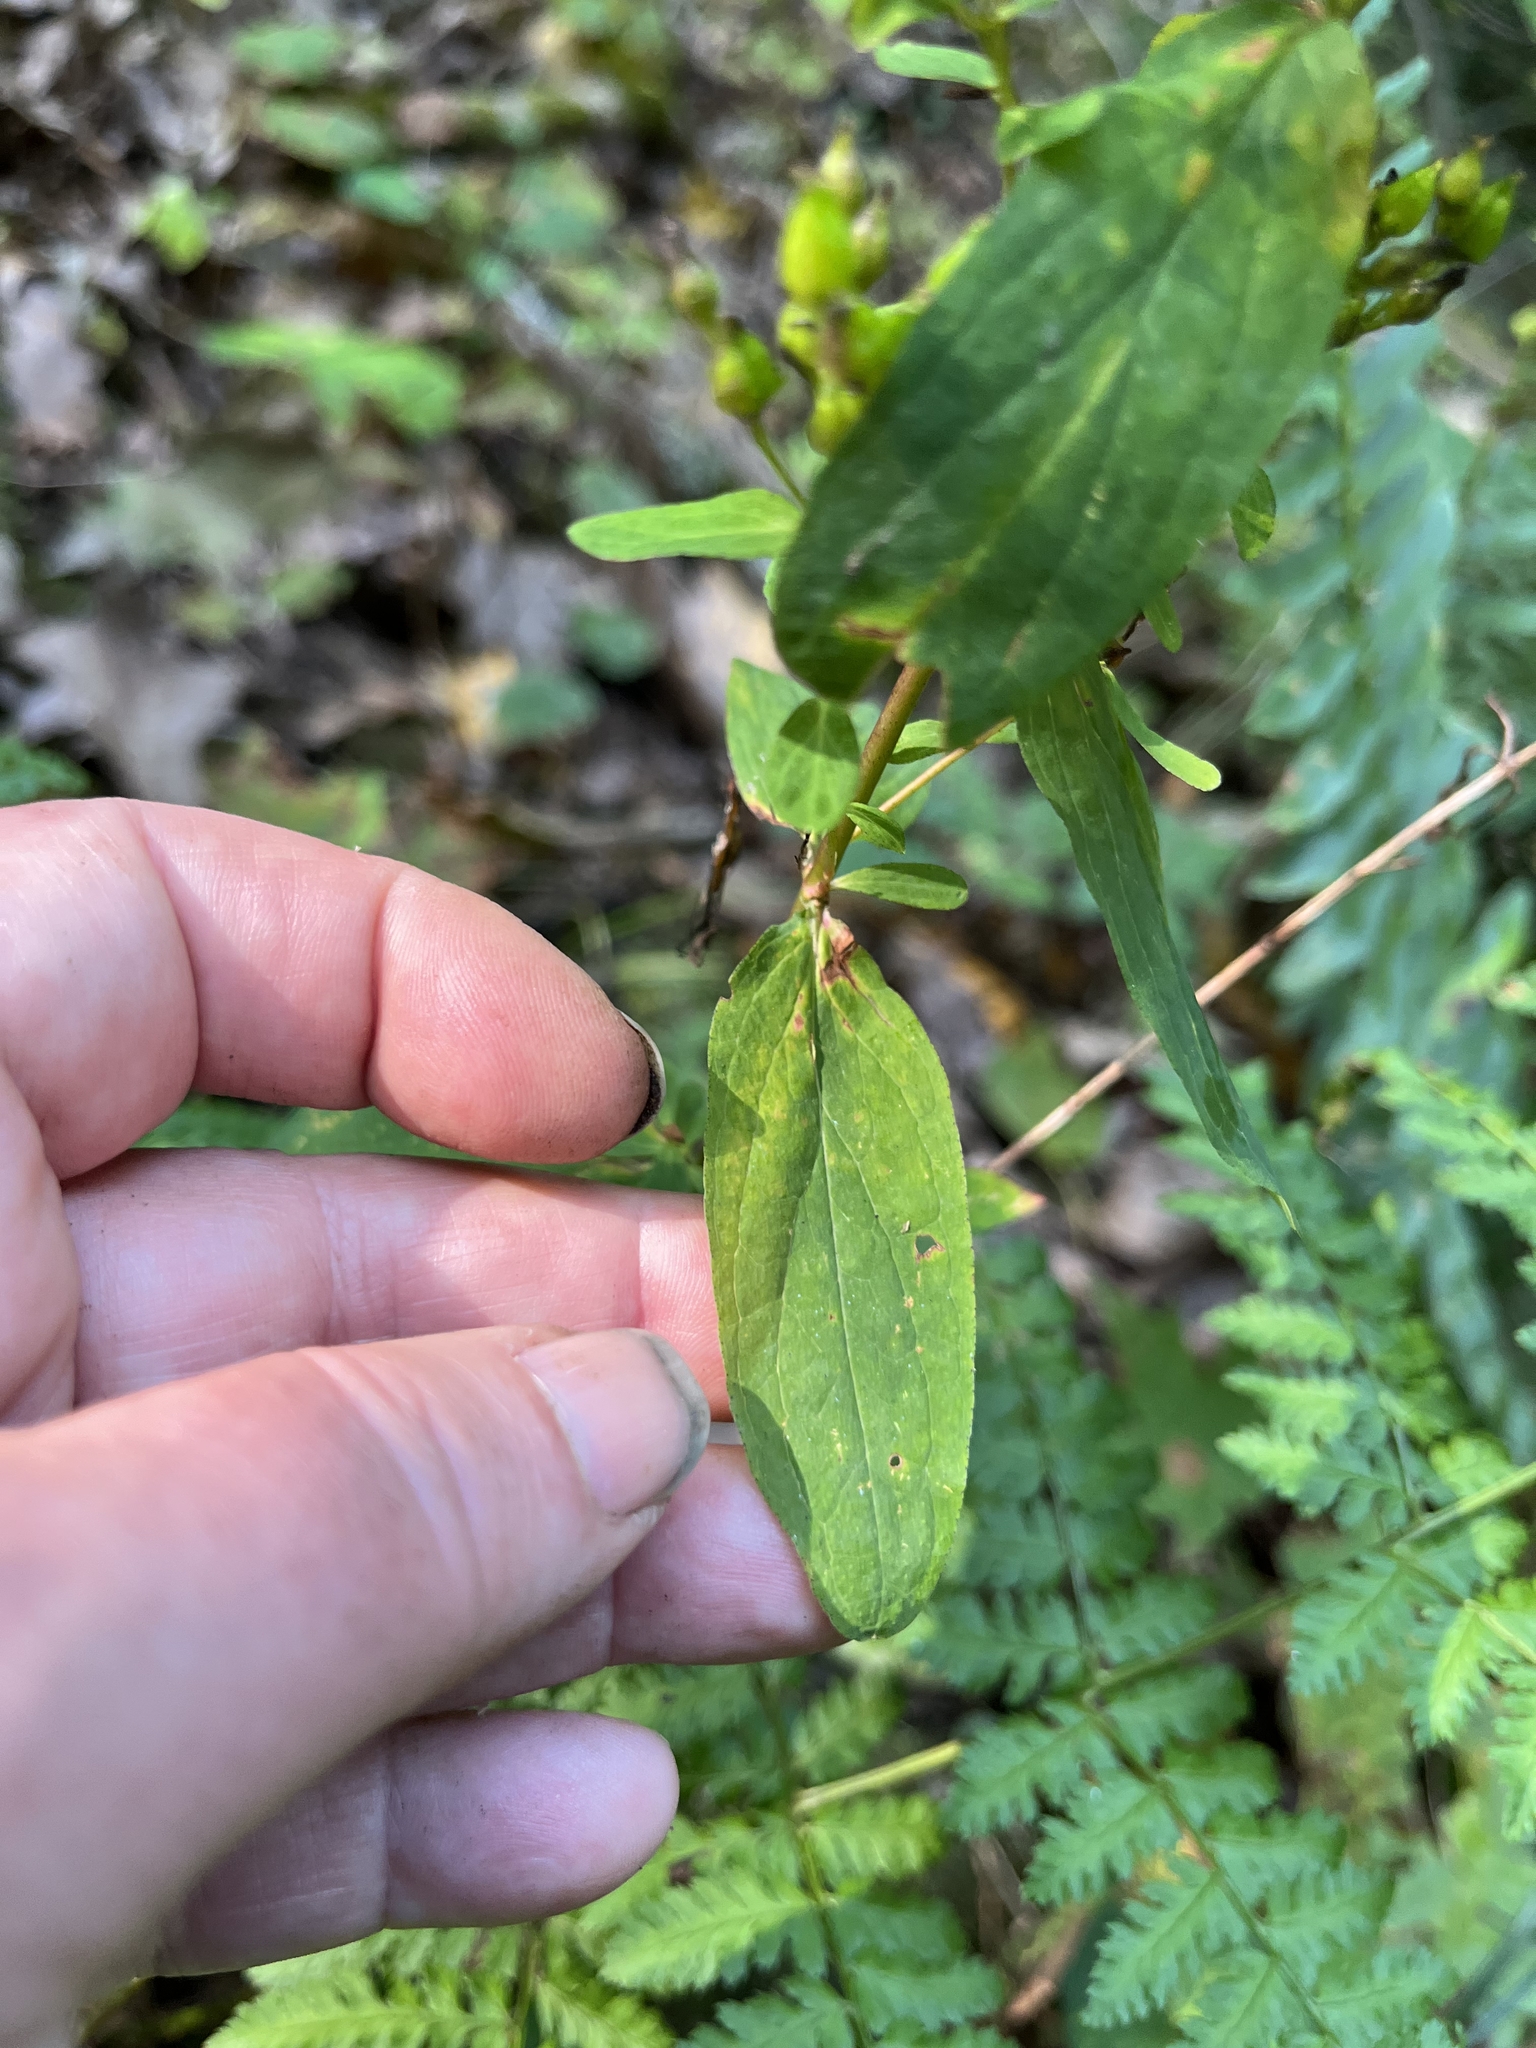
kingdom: Plantae
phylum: Tracheophyta
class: Magnoliopsida
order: Malpighiales
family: Hypericaceae
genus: Hypericum
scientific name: Hypericum punctatum
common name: Spotted st. john's-wort
